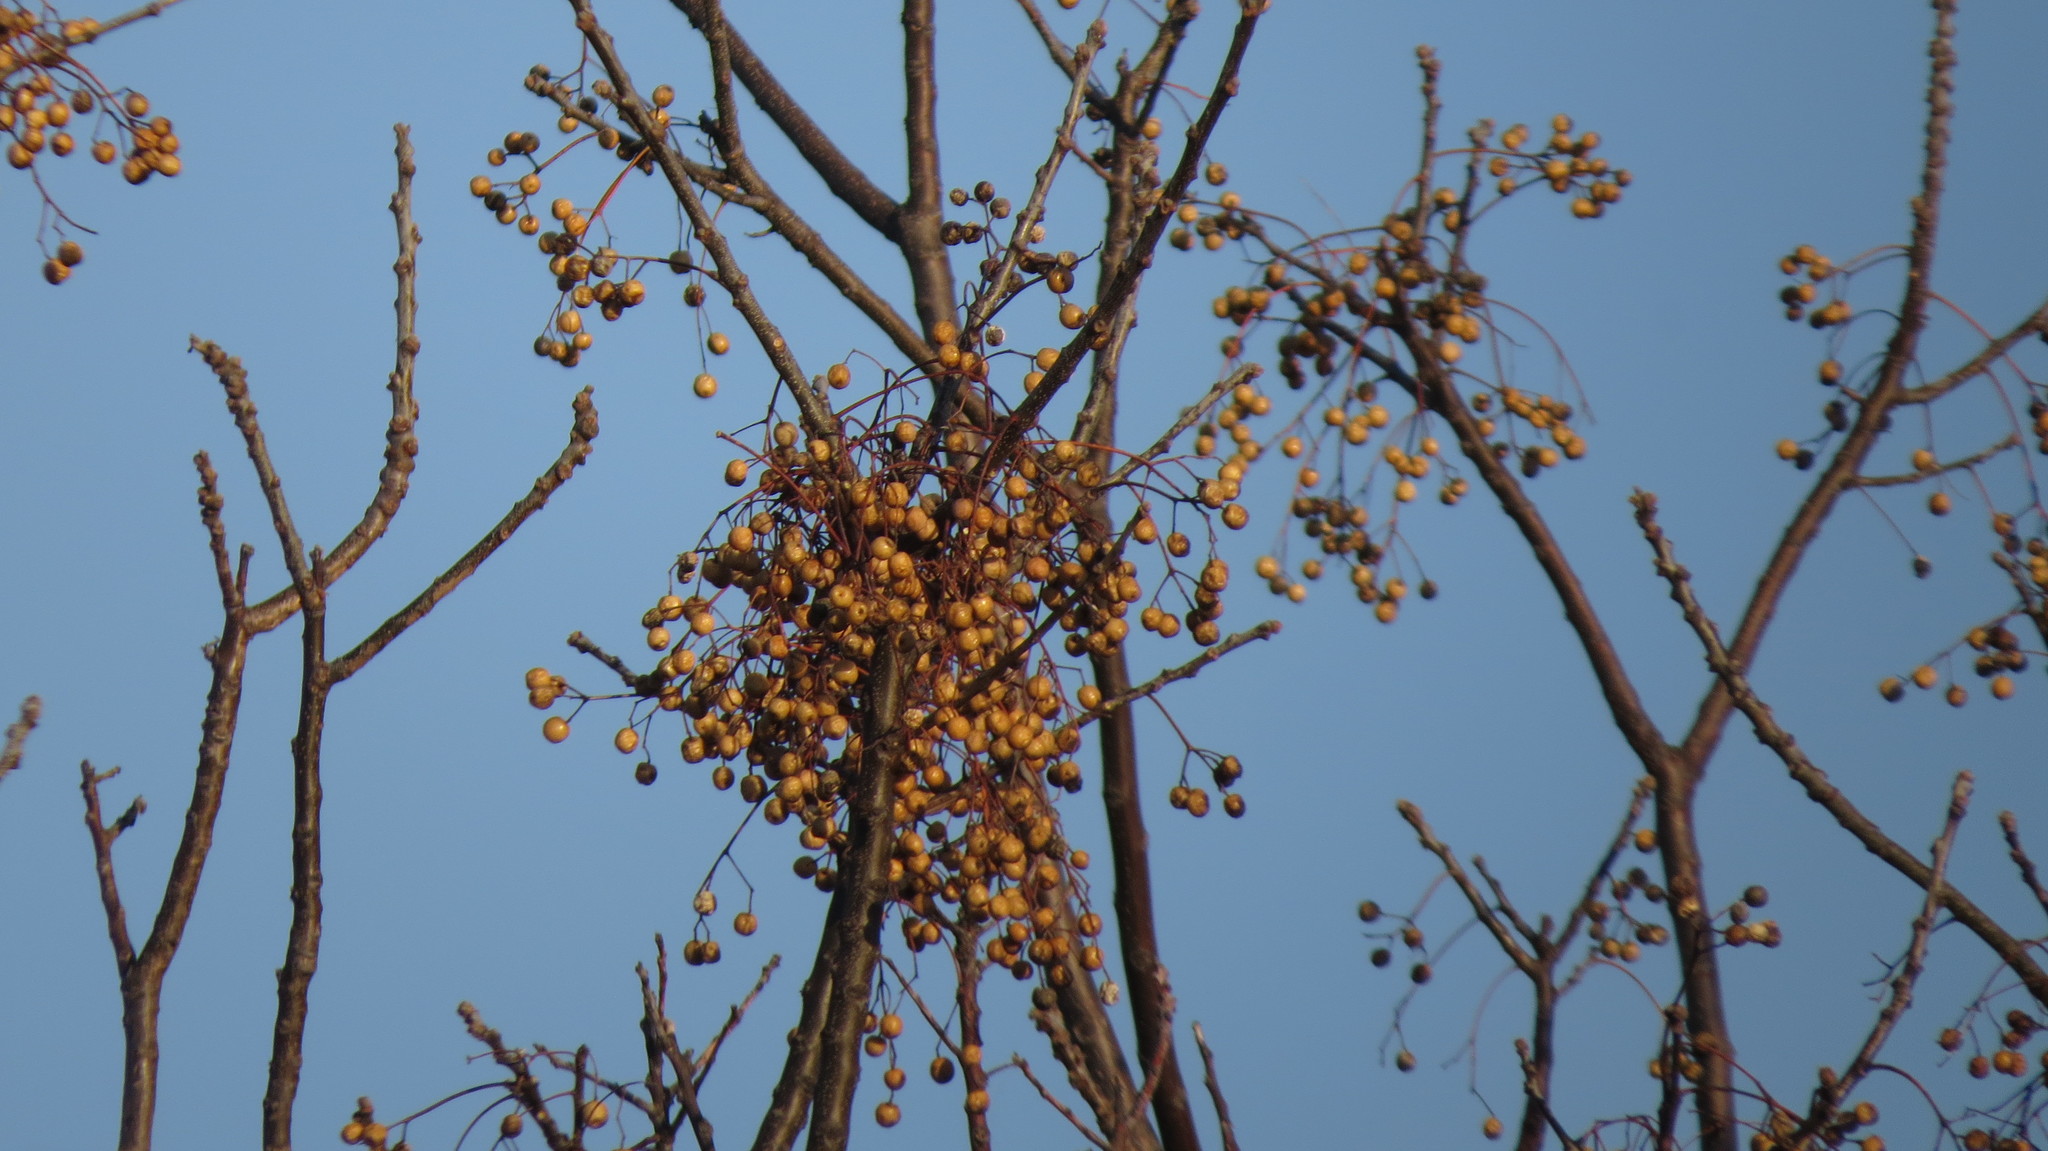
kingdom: Plantae
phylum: Tracheophyta
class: Magnoliopsida
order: Sapindales
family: Meliaceae
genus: Melia
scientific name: Melia azedarach
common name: Chinaberrytree
